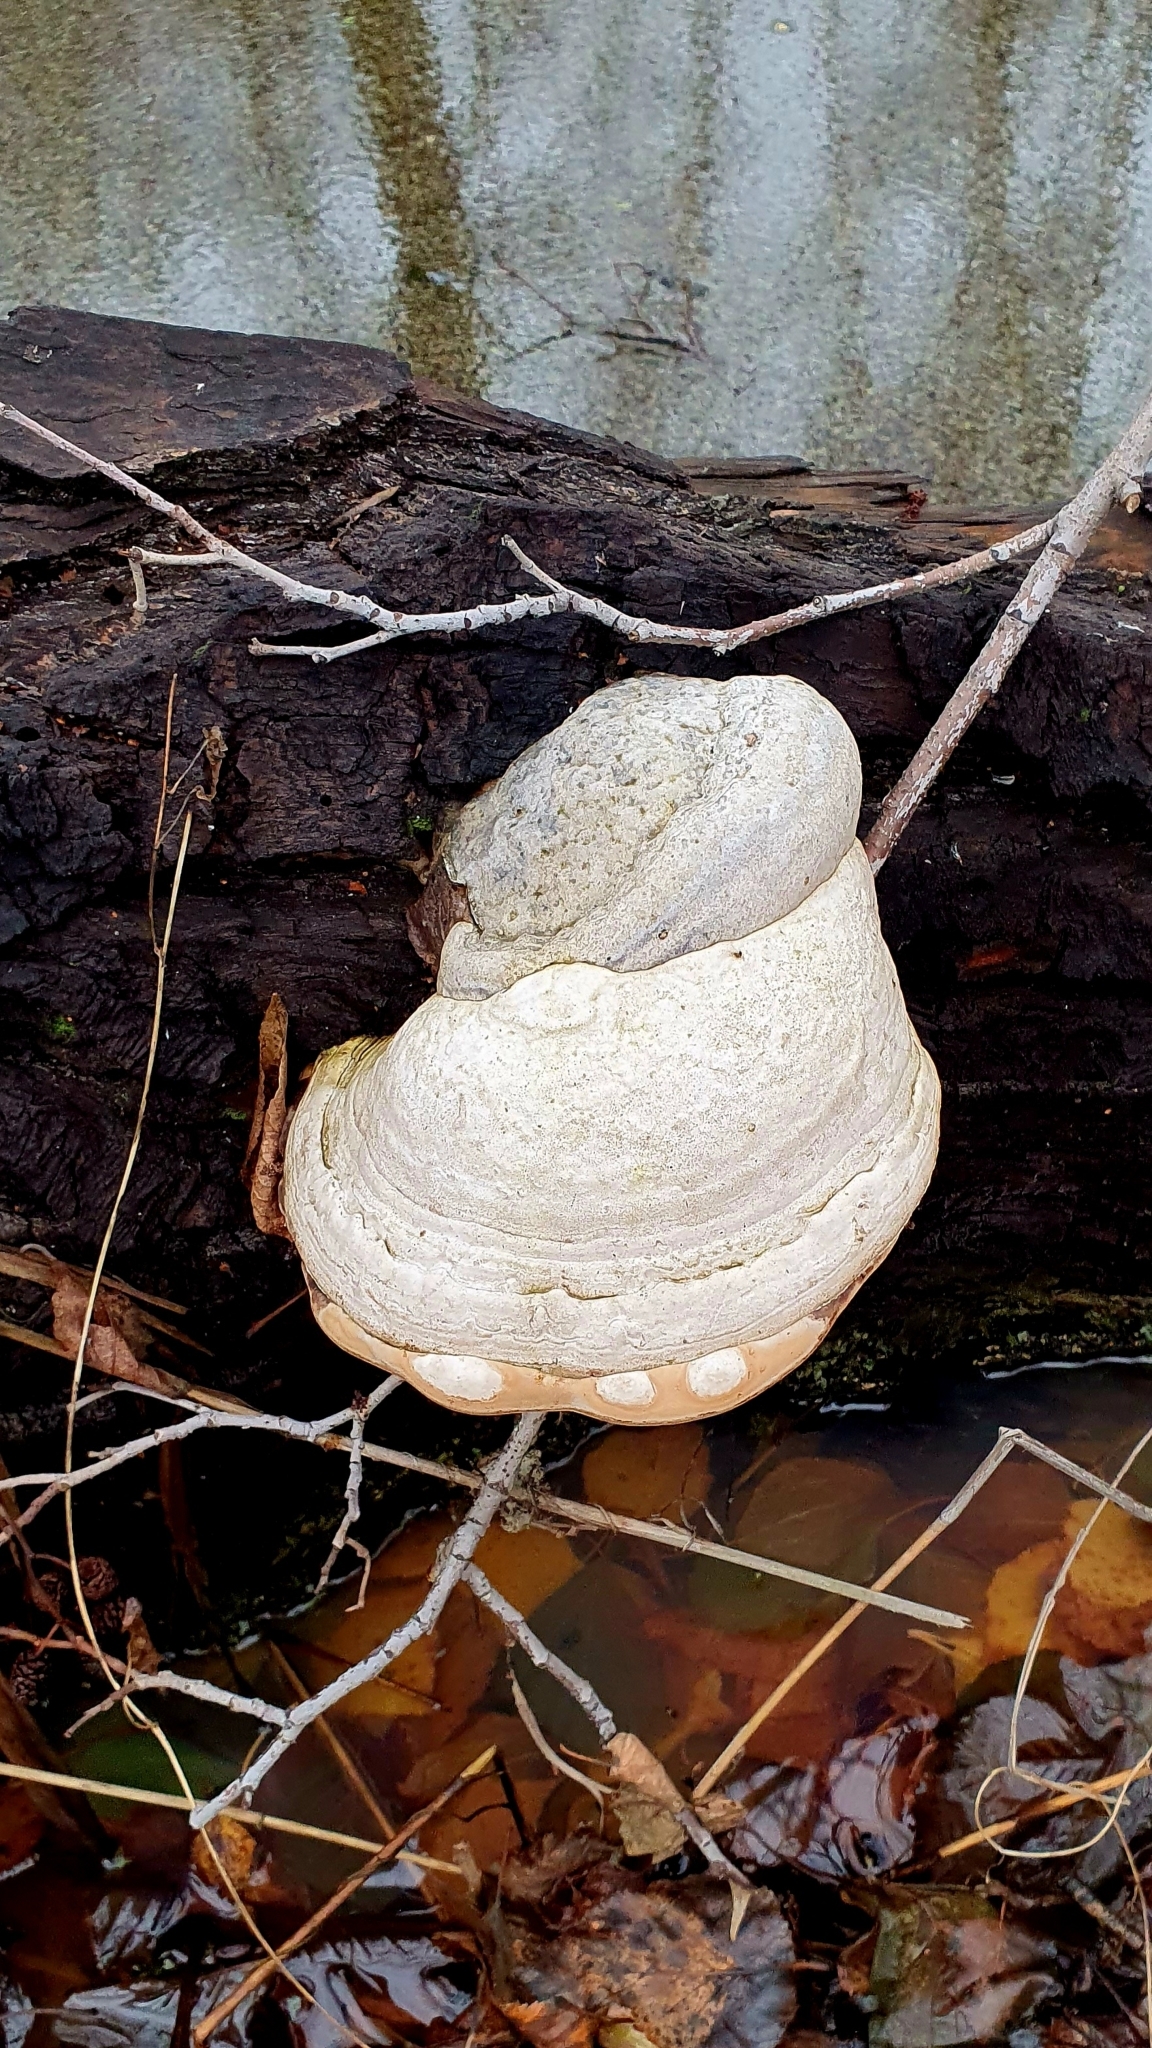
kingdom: Fungi
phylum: Basidiomycota
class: Agaricomycetes
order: Polyporales
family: Polyporaceae
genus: Fomes
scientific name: Fomes fomentarius
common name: Hoof fungus
